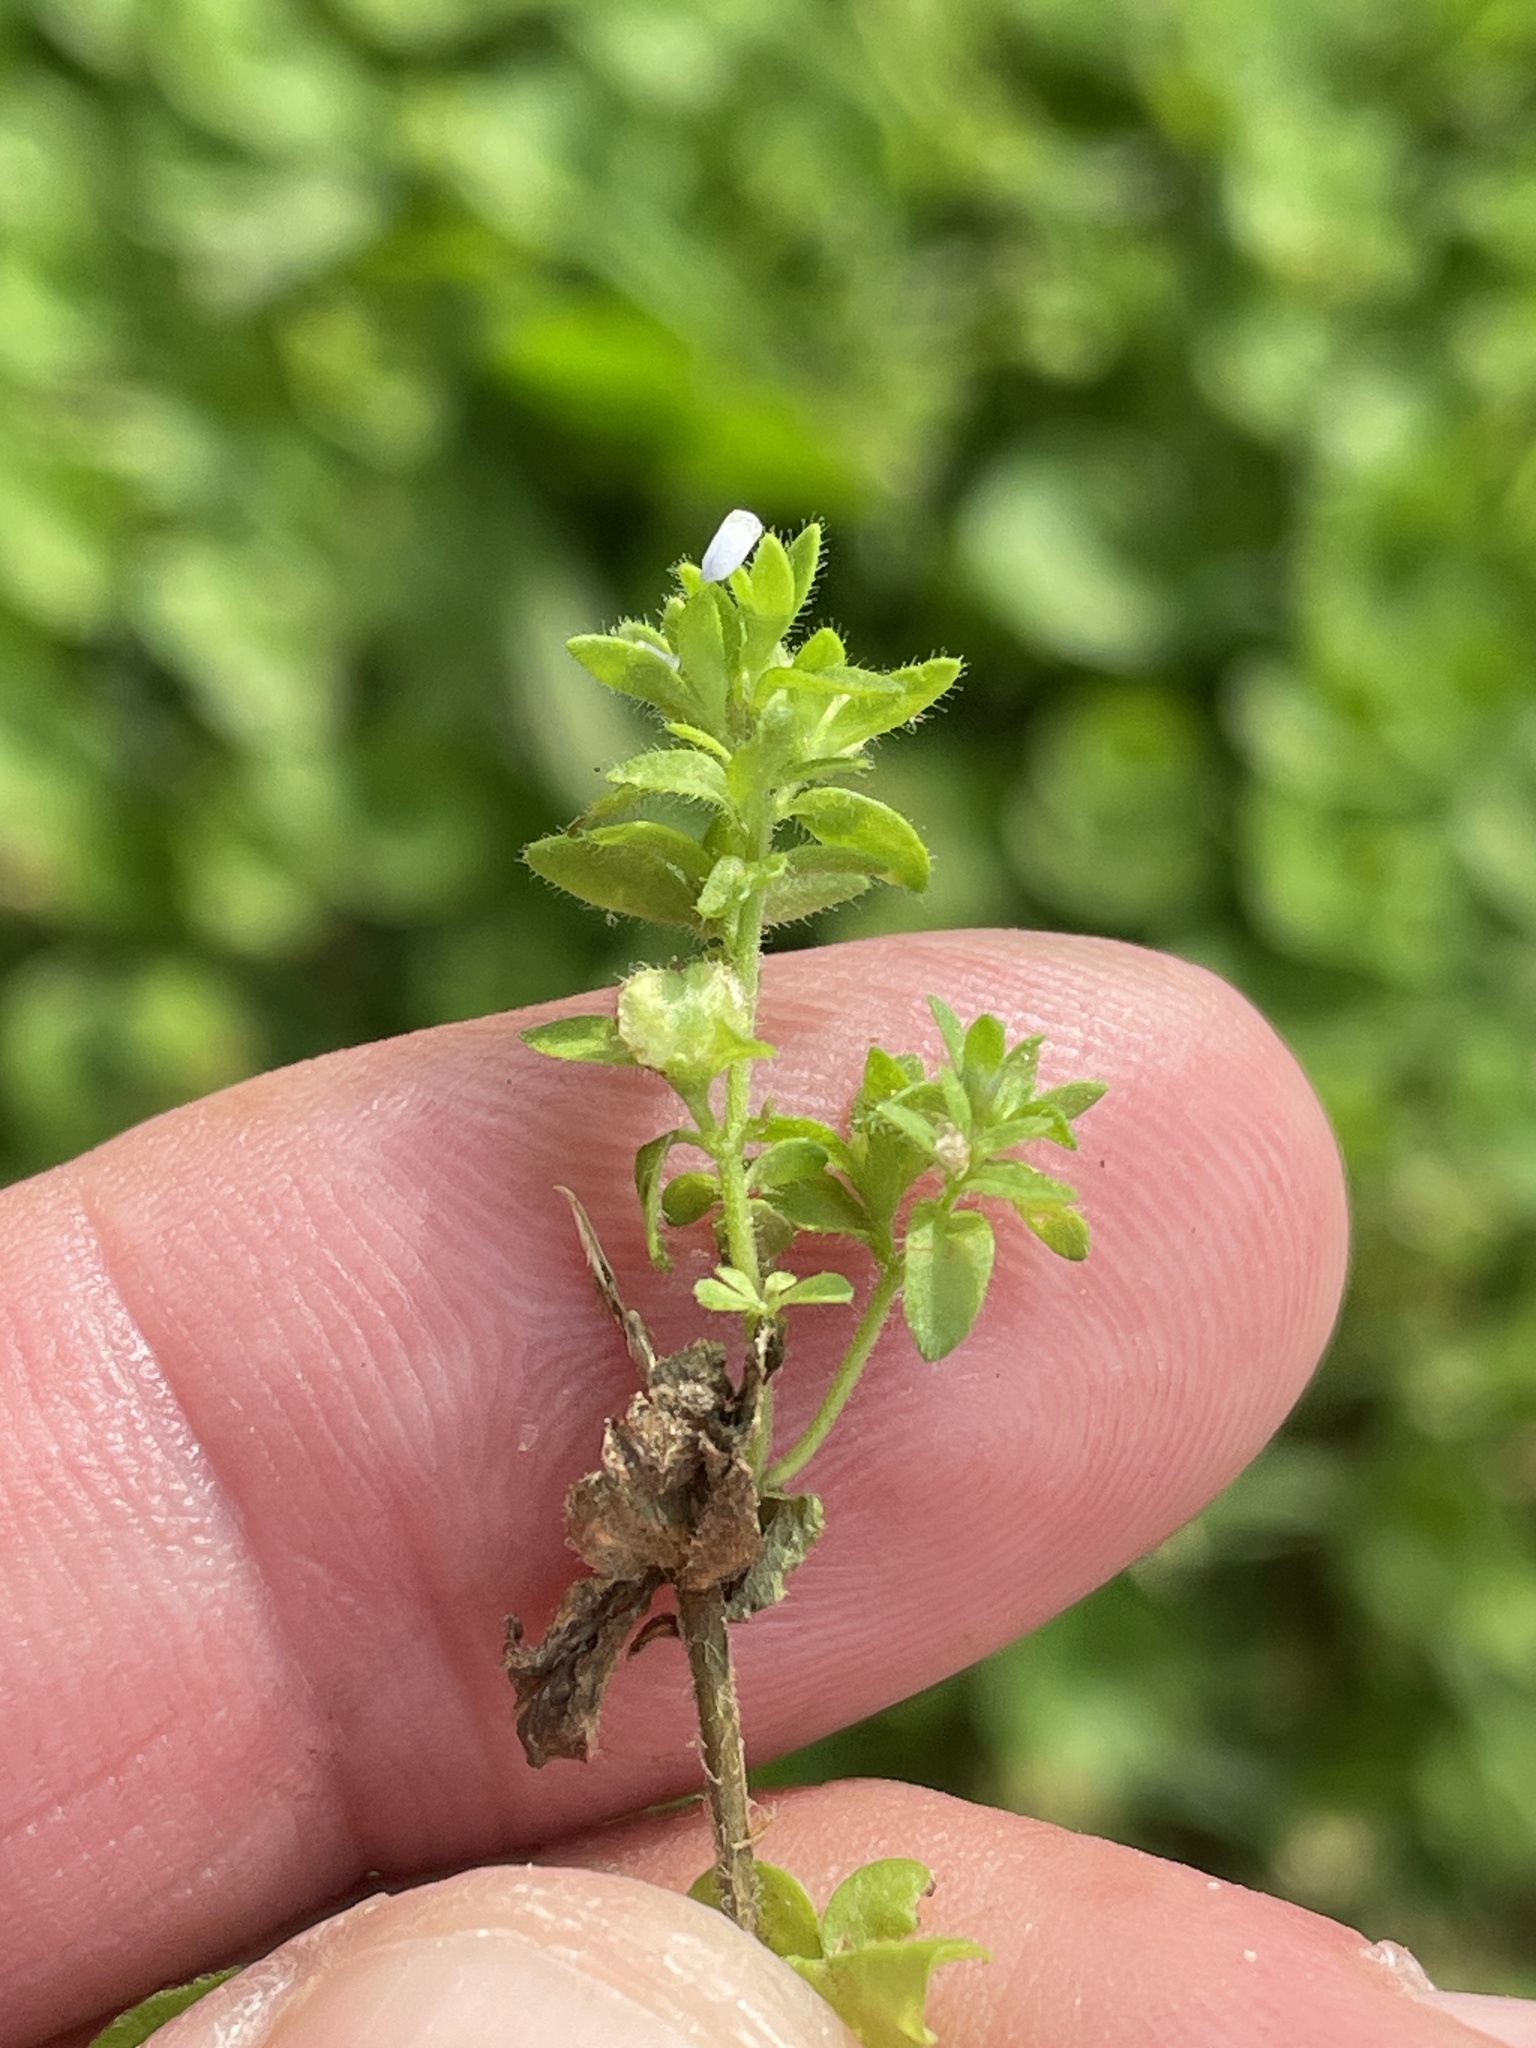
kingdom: Plantae
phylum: Tracheophyta
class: Magnoliopsida
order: Lamiales
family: Plantaginaceae
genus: Veronica
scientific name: Veronica arvensis
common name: Corn speedwell
